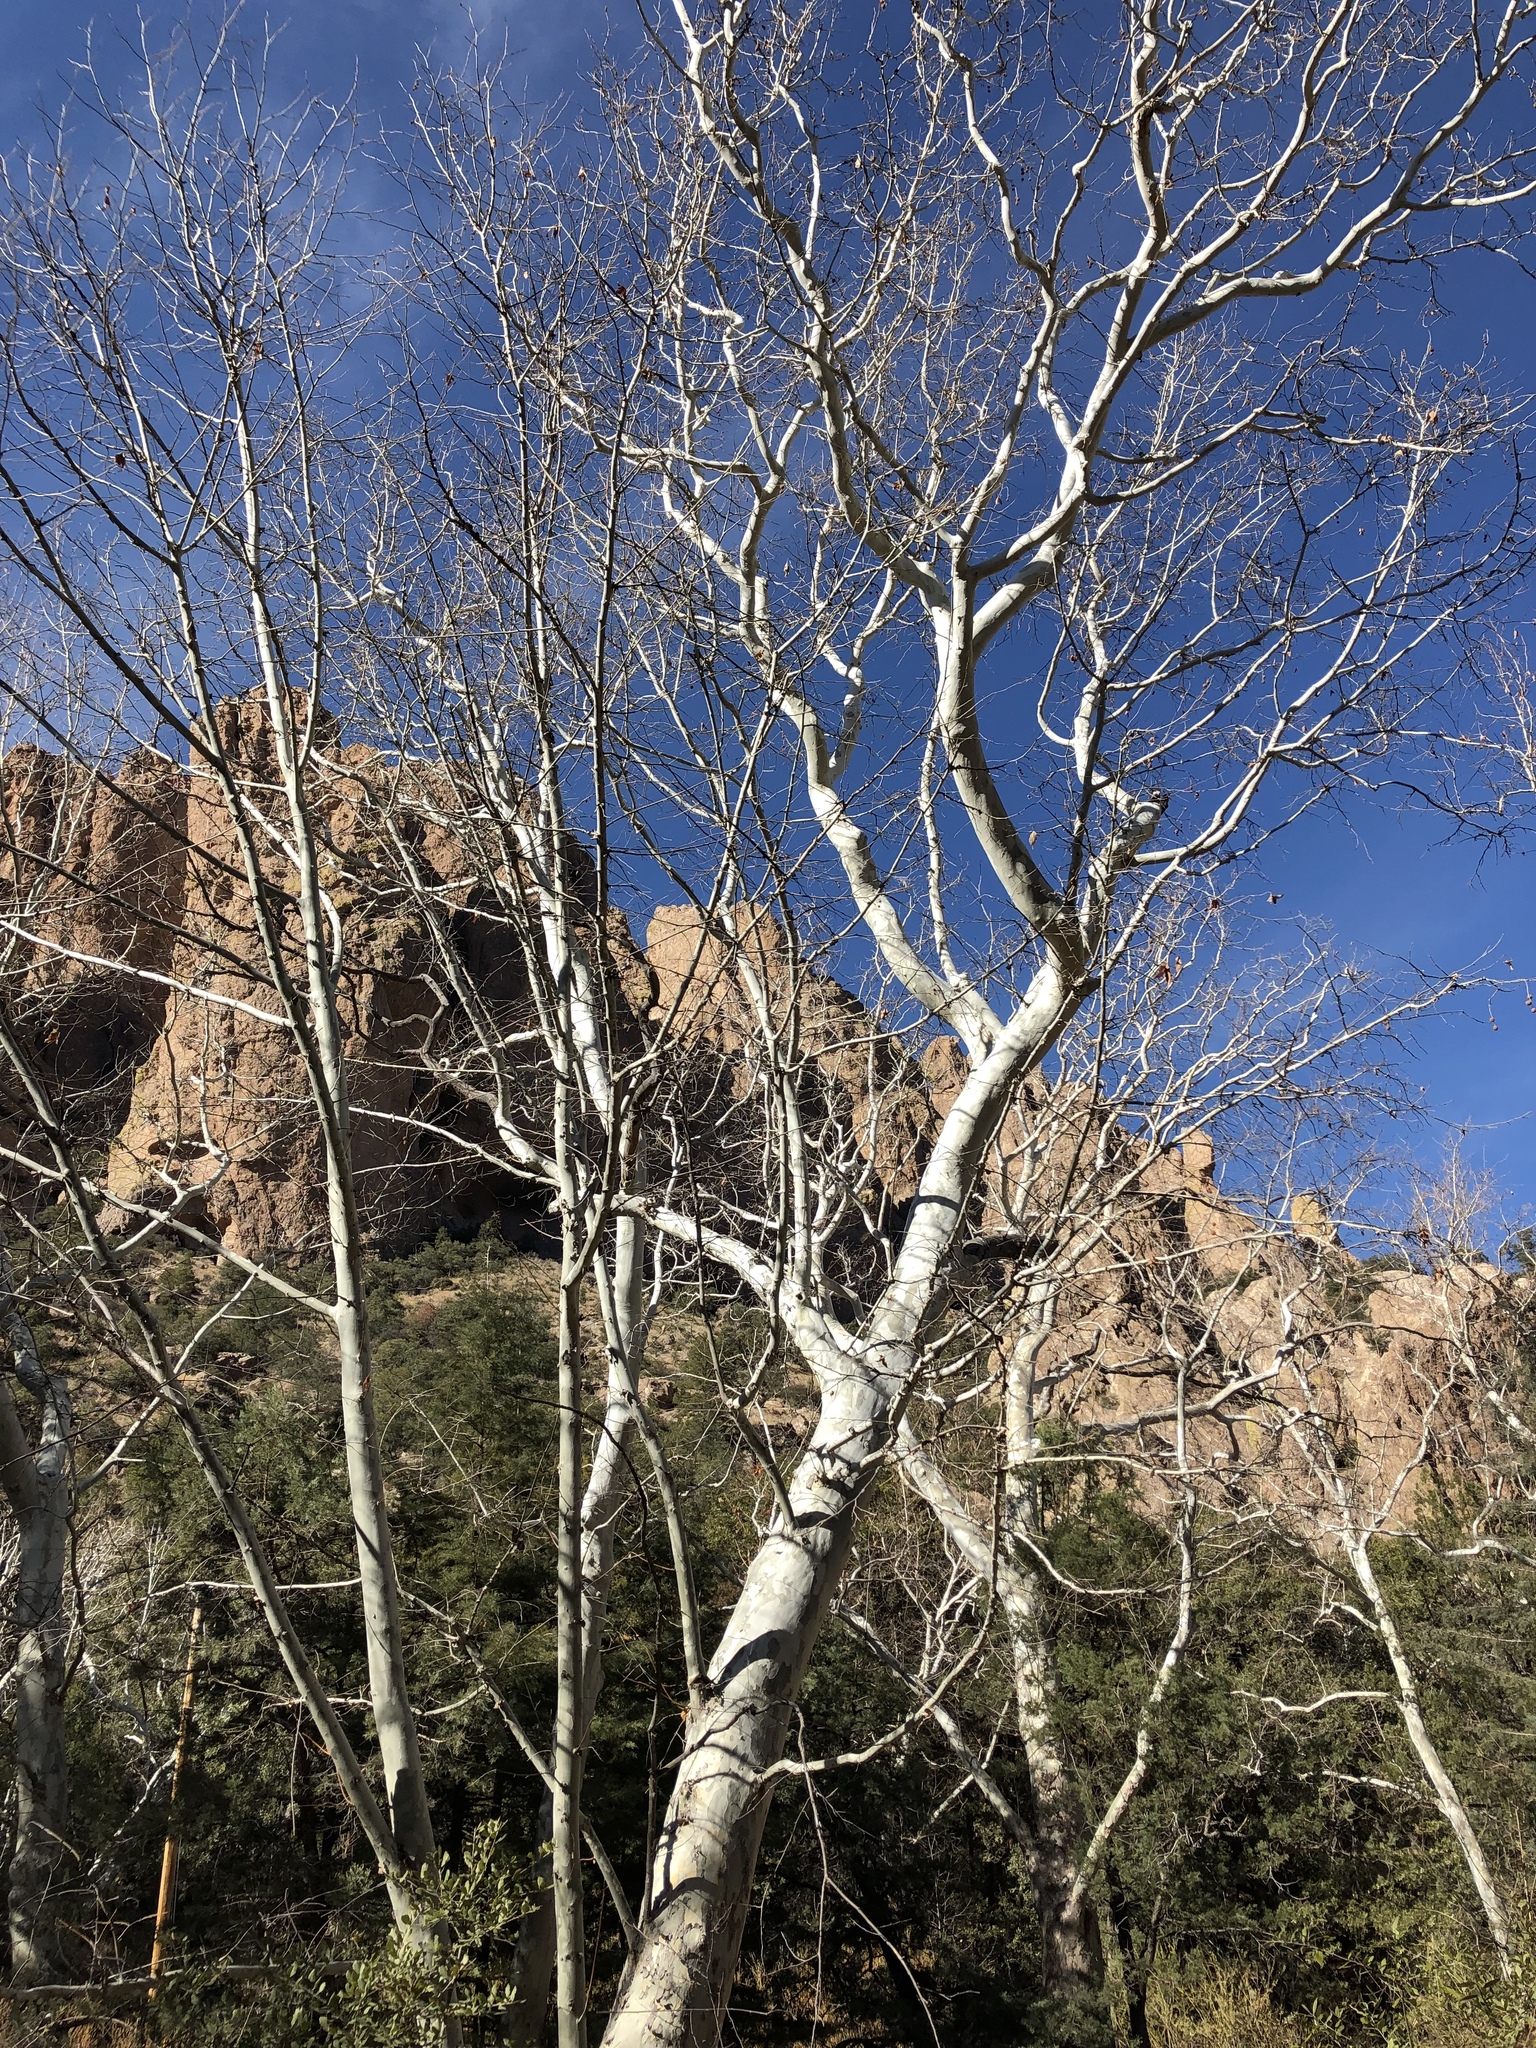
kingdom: Plantae
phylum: Tracheophyta
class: Magnoliopsida
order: Proteales
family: Platanaceae
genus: Platanus
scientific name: Platanus wrightii
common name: Arizona sycamore
